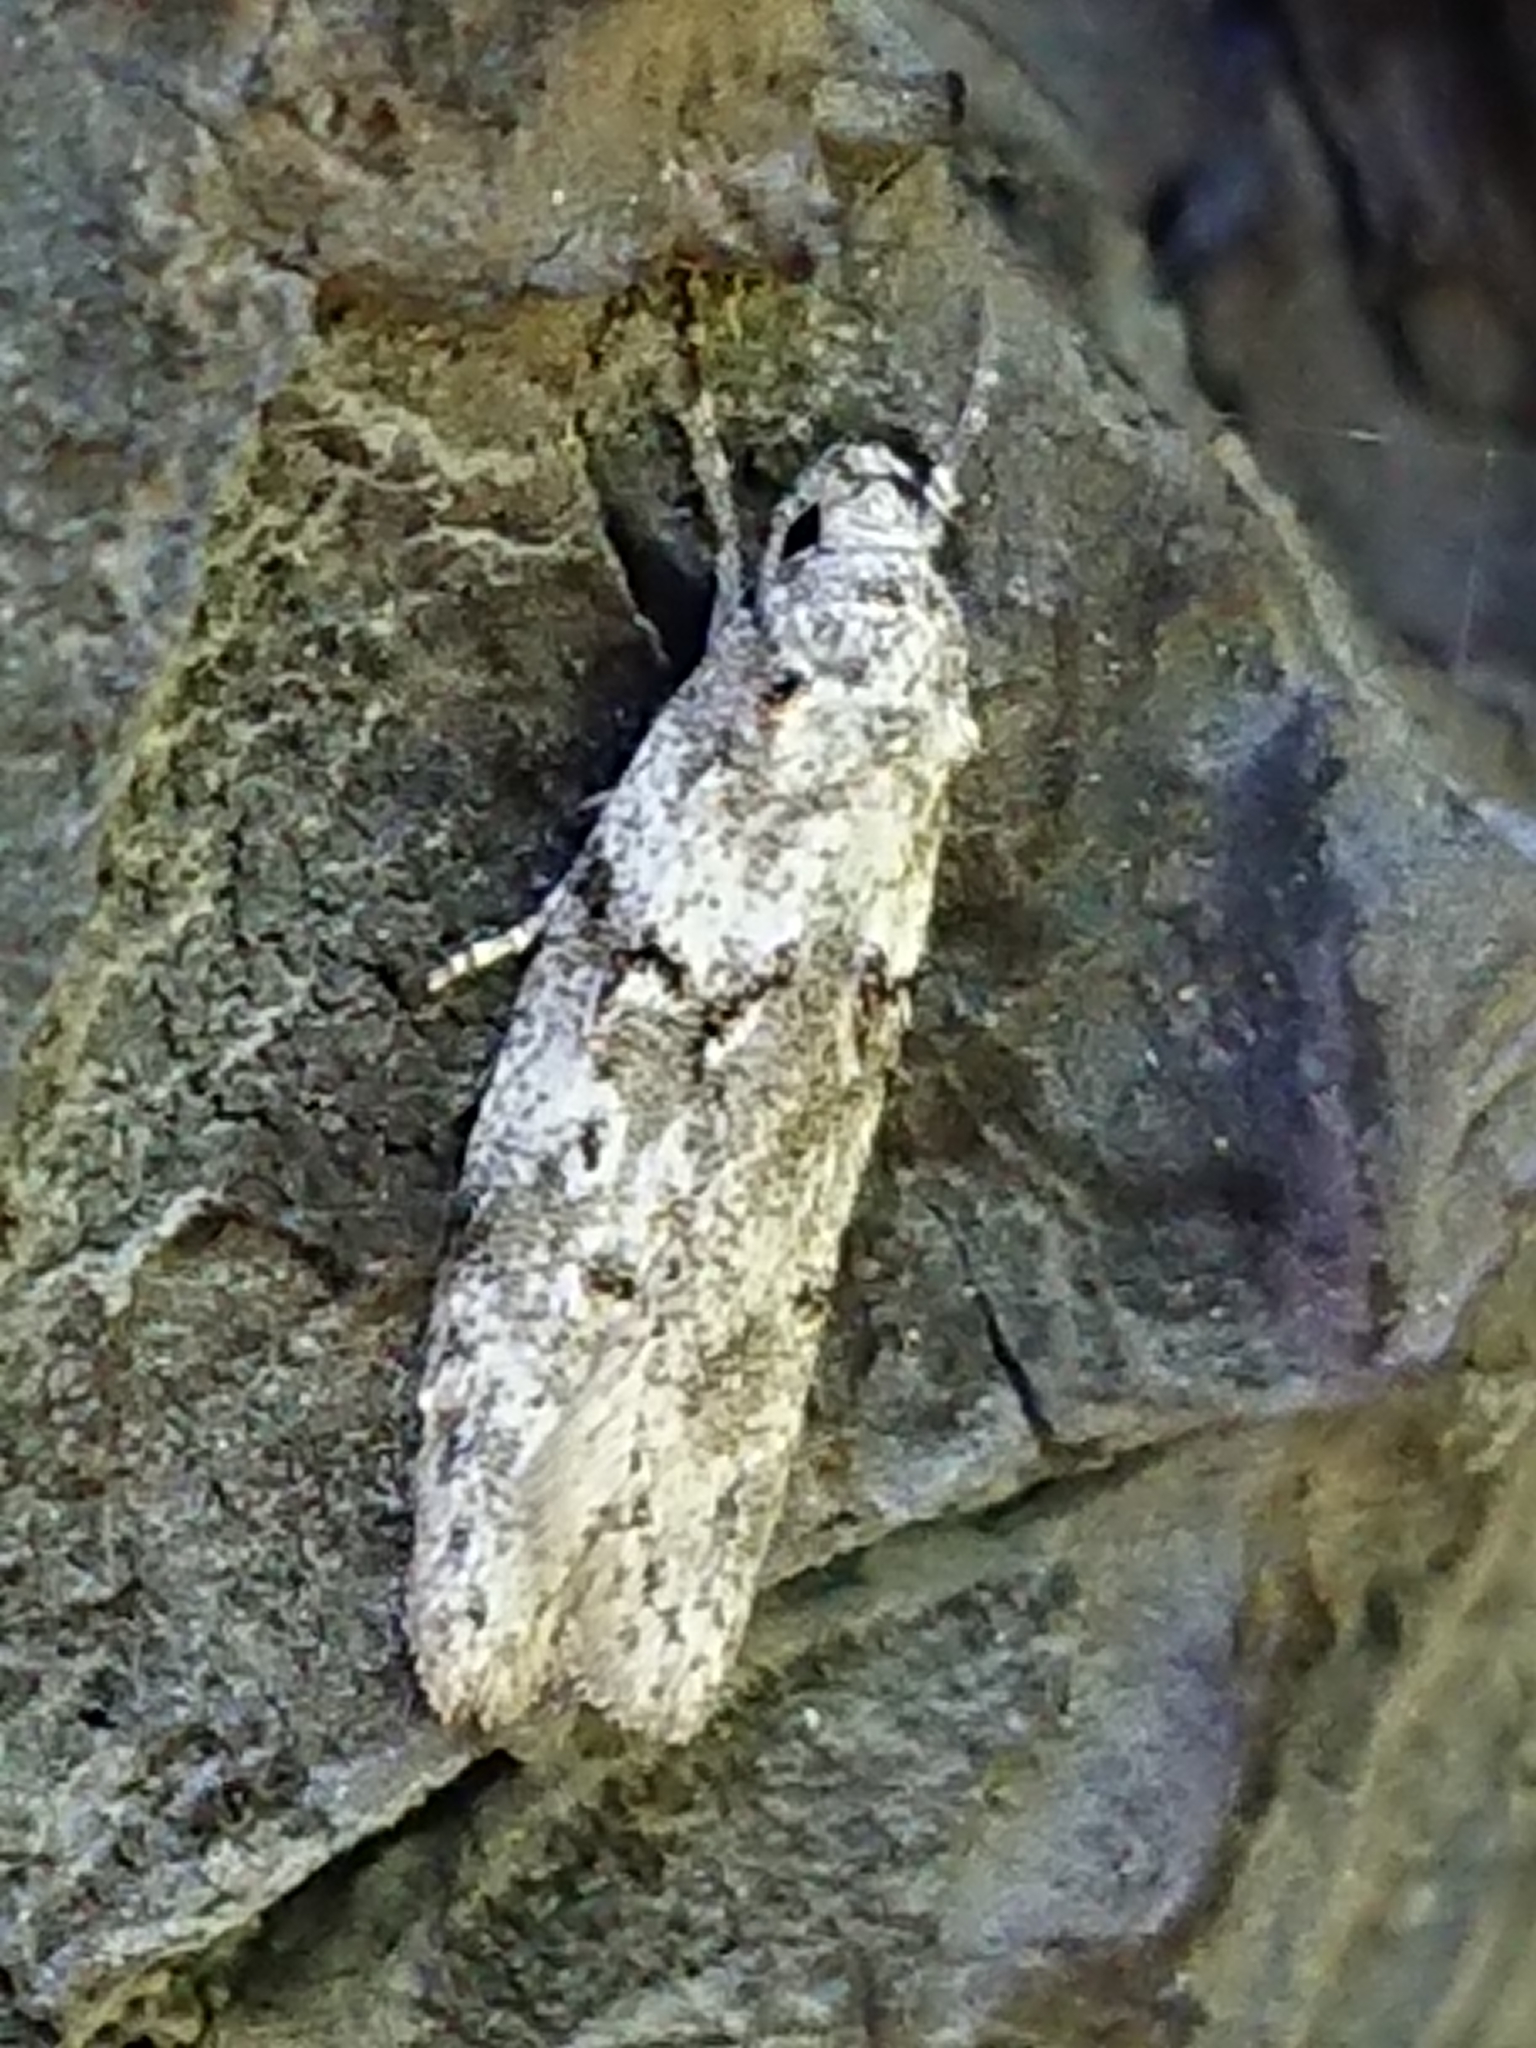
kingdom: Animalia
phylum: Arthropoda
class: Insecta
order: Lepidoptera
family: Oecophoridae
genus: Izatha
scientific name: Izatha convulsella
